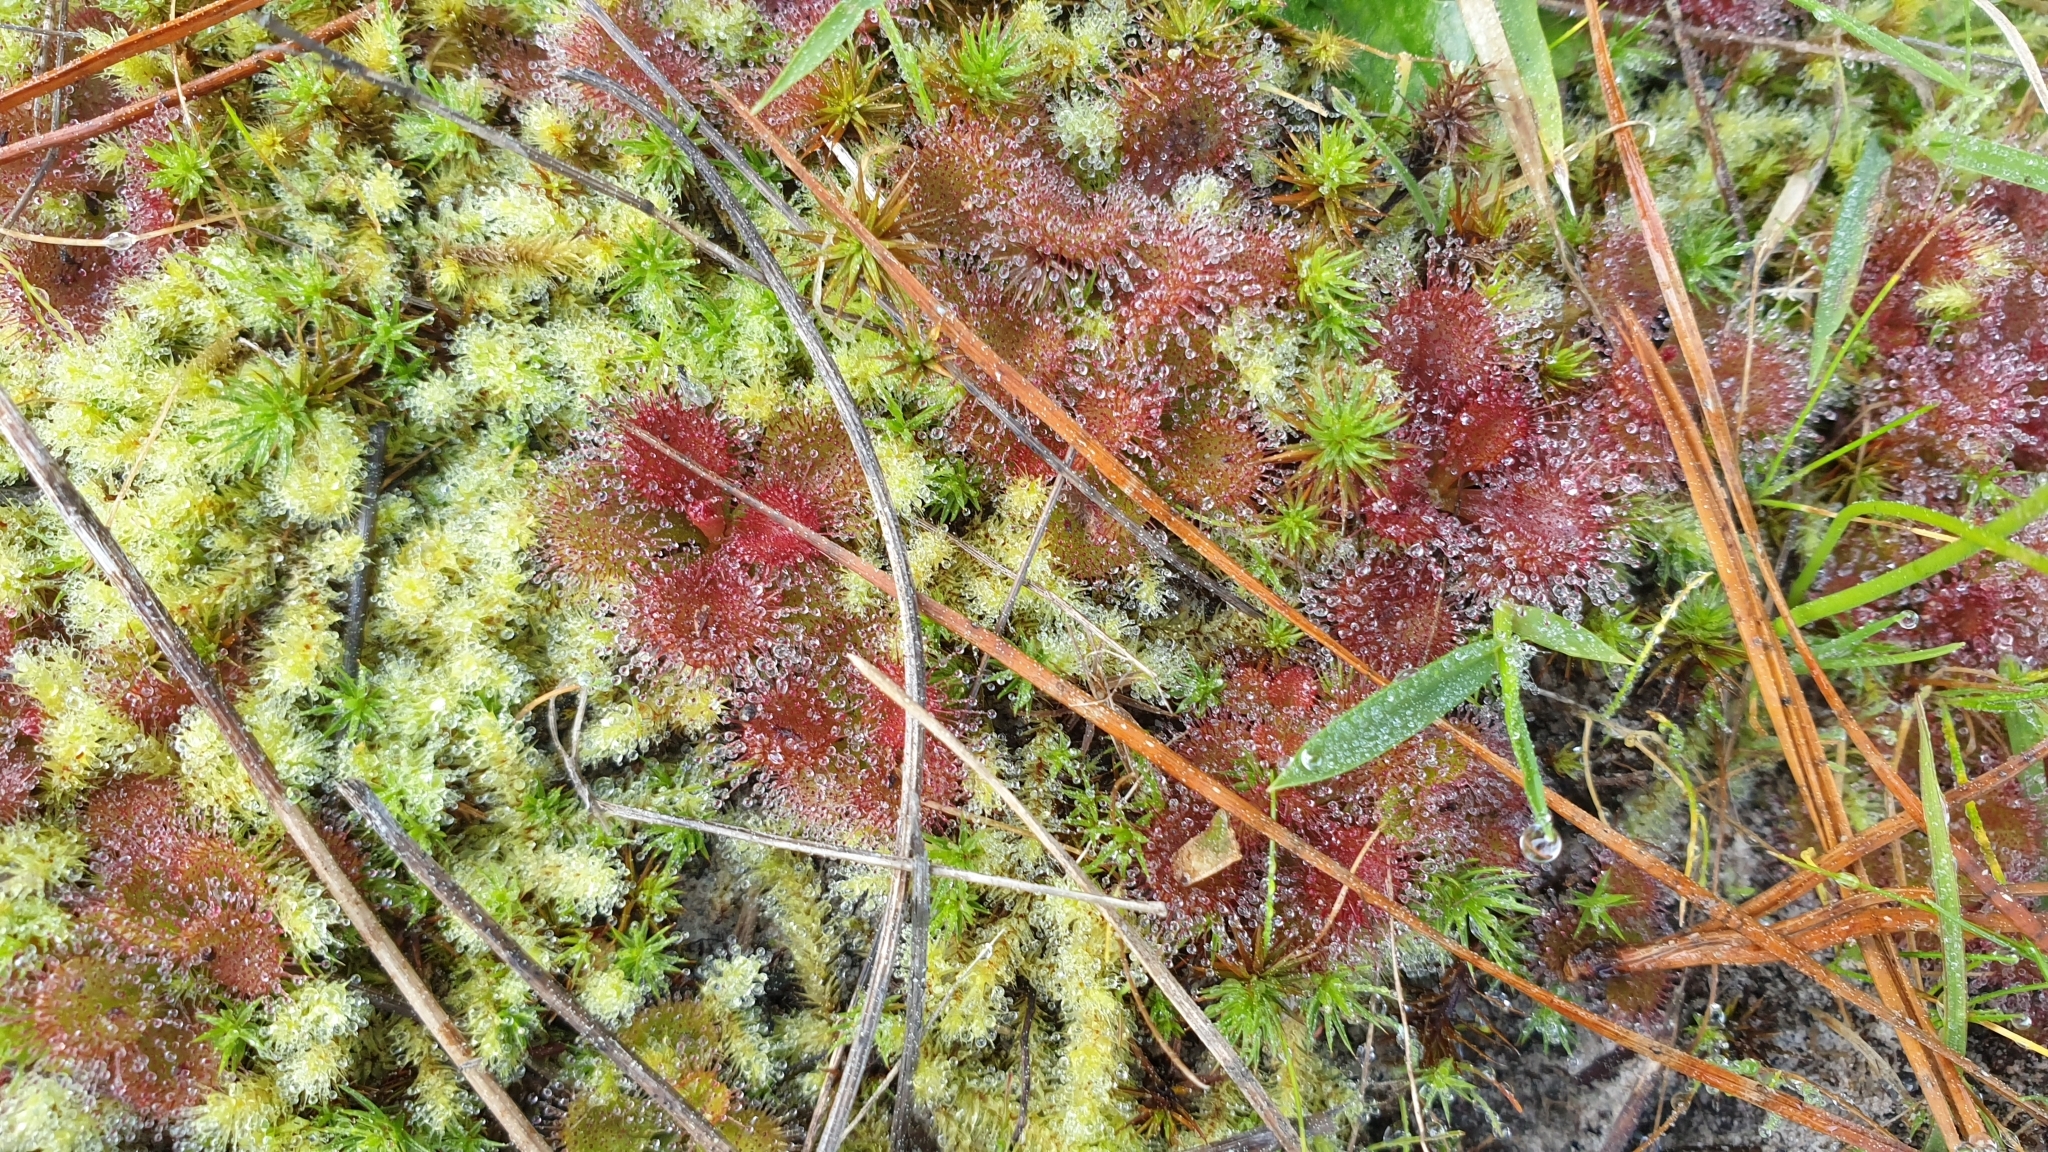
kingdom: Plantae
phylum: Tracheophyta
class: Magnoliopsida
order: Caryophyllales
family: Droseraceae
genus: Drosera
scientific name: Drosera aberrans
